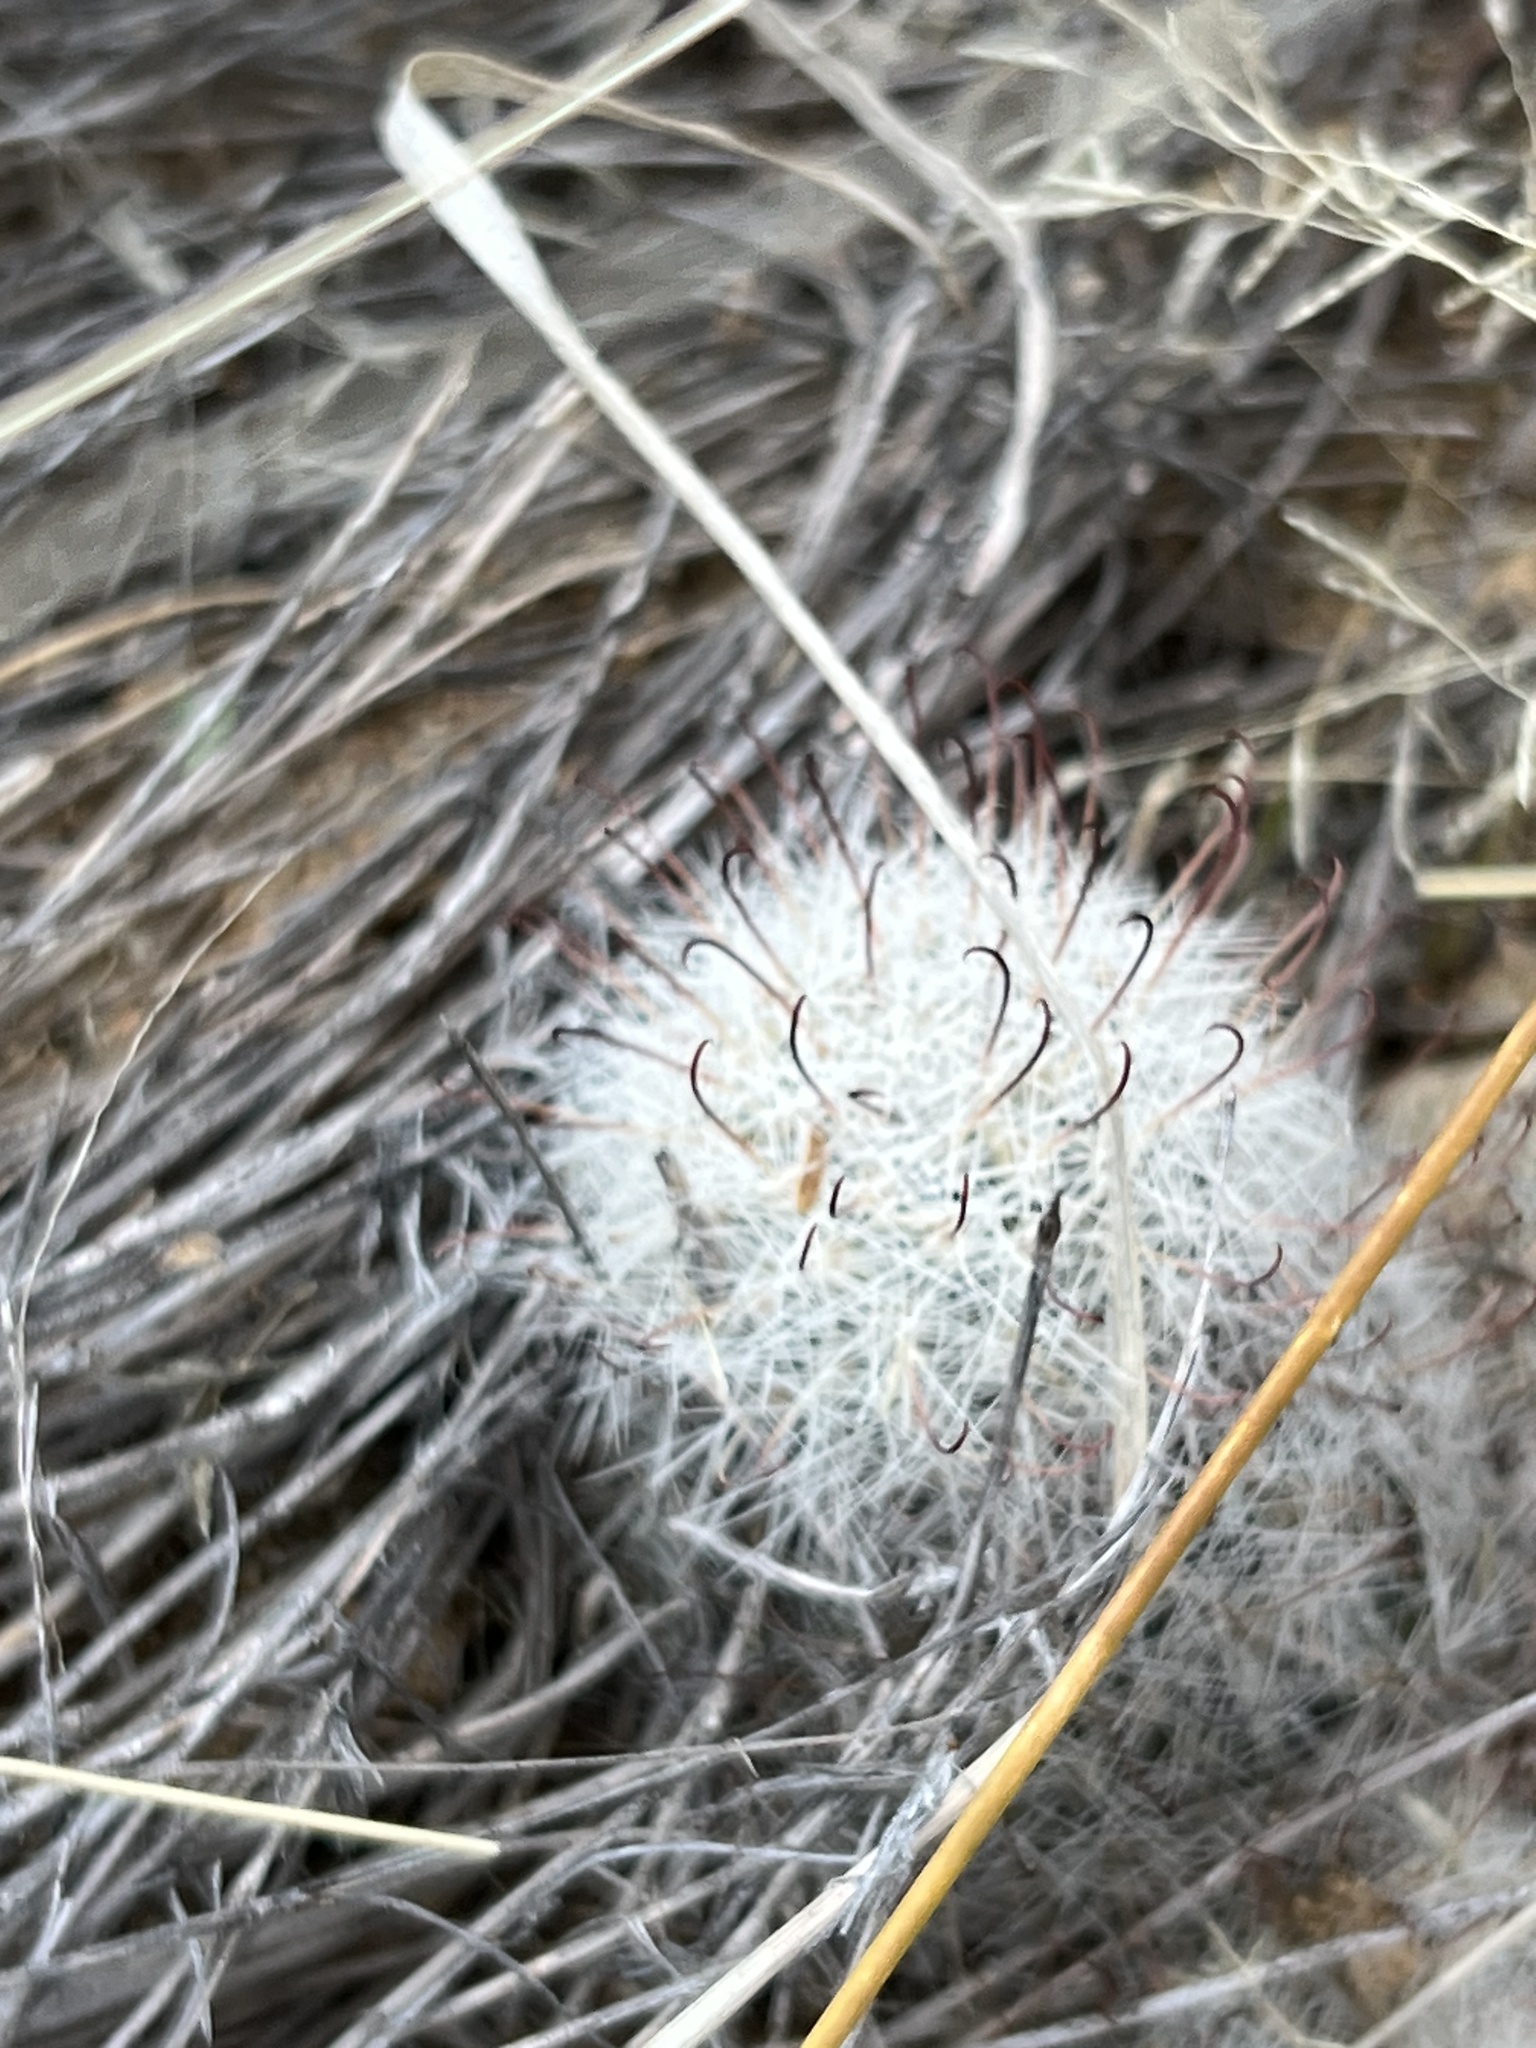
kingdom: Plantae
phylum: Tracheophyta
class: Magnoliopsida
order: Caryophyllales
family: Cactaceae
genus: Cochemiea
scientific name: Cochemiea grahamii
